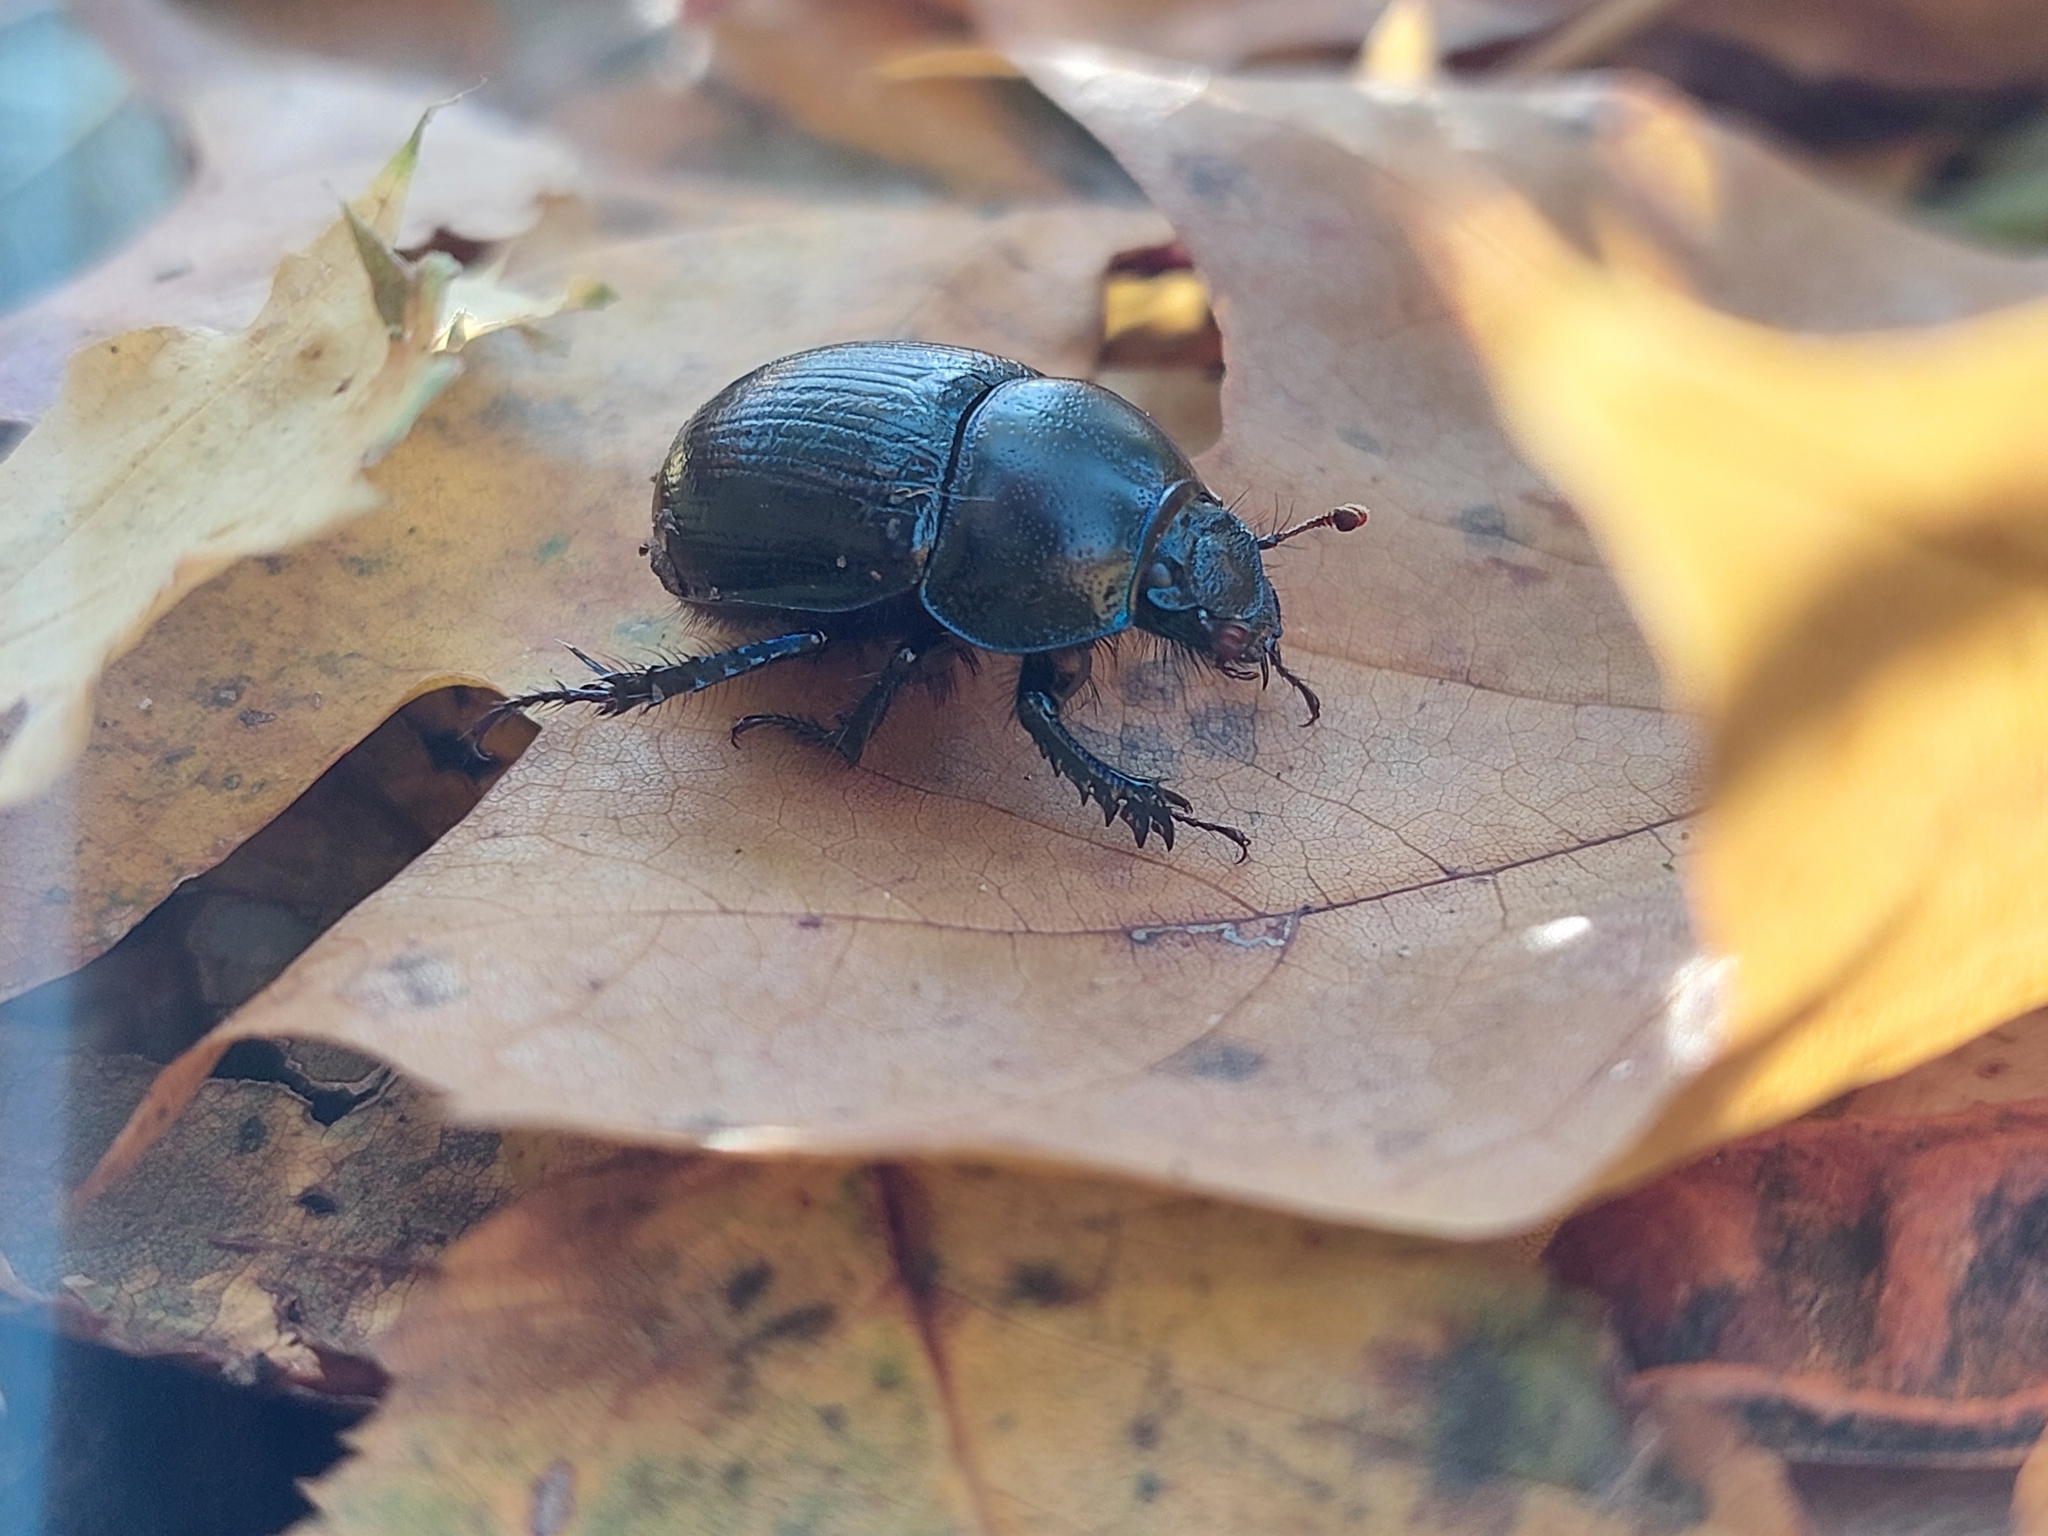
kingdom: Animalia
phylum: Arthropoda
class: Insecta
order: Coleoptera
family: Geotrupidae
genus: Anoplotrupes
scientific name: Anoplotrupes stercorosus
